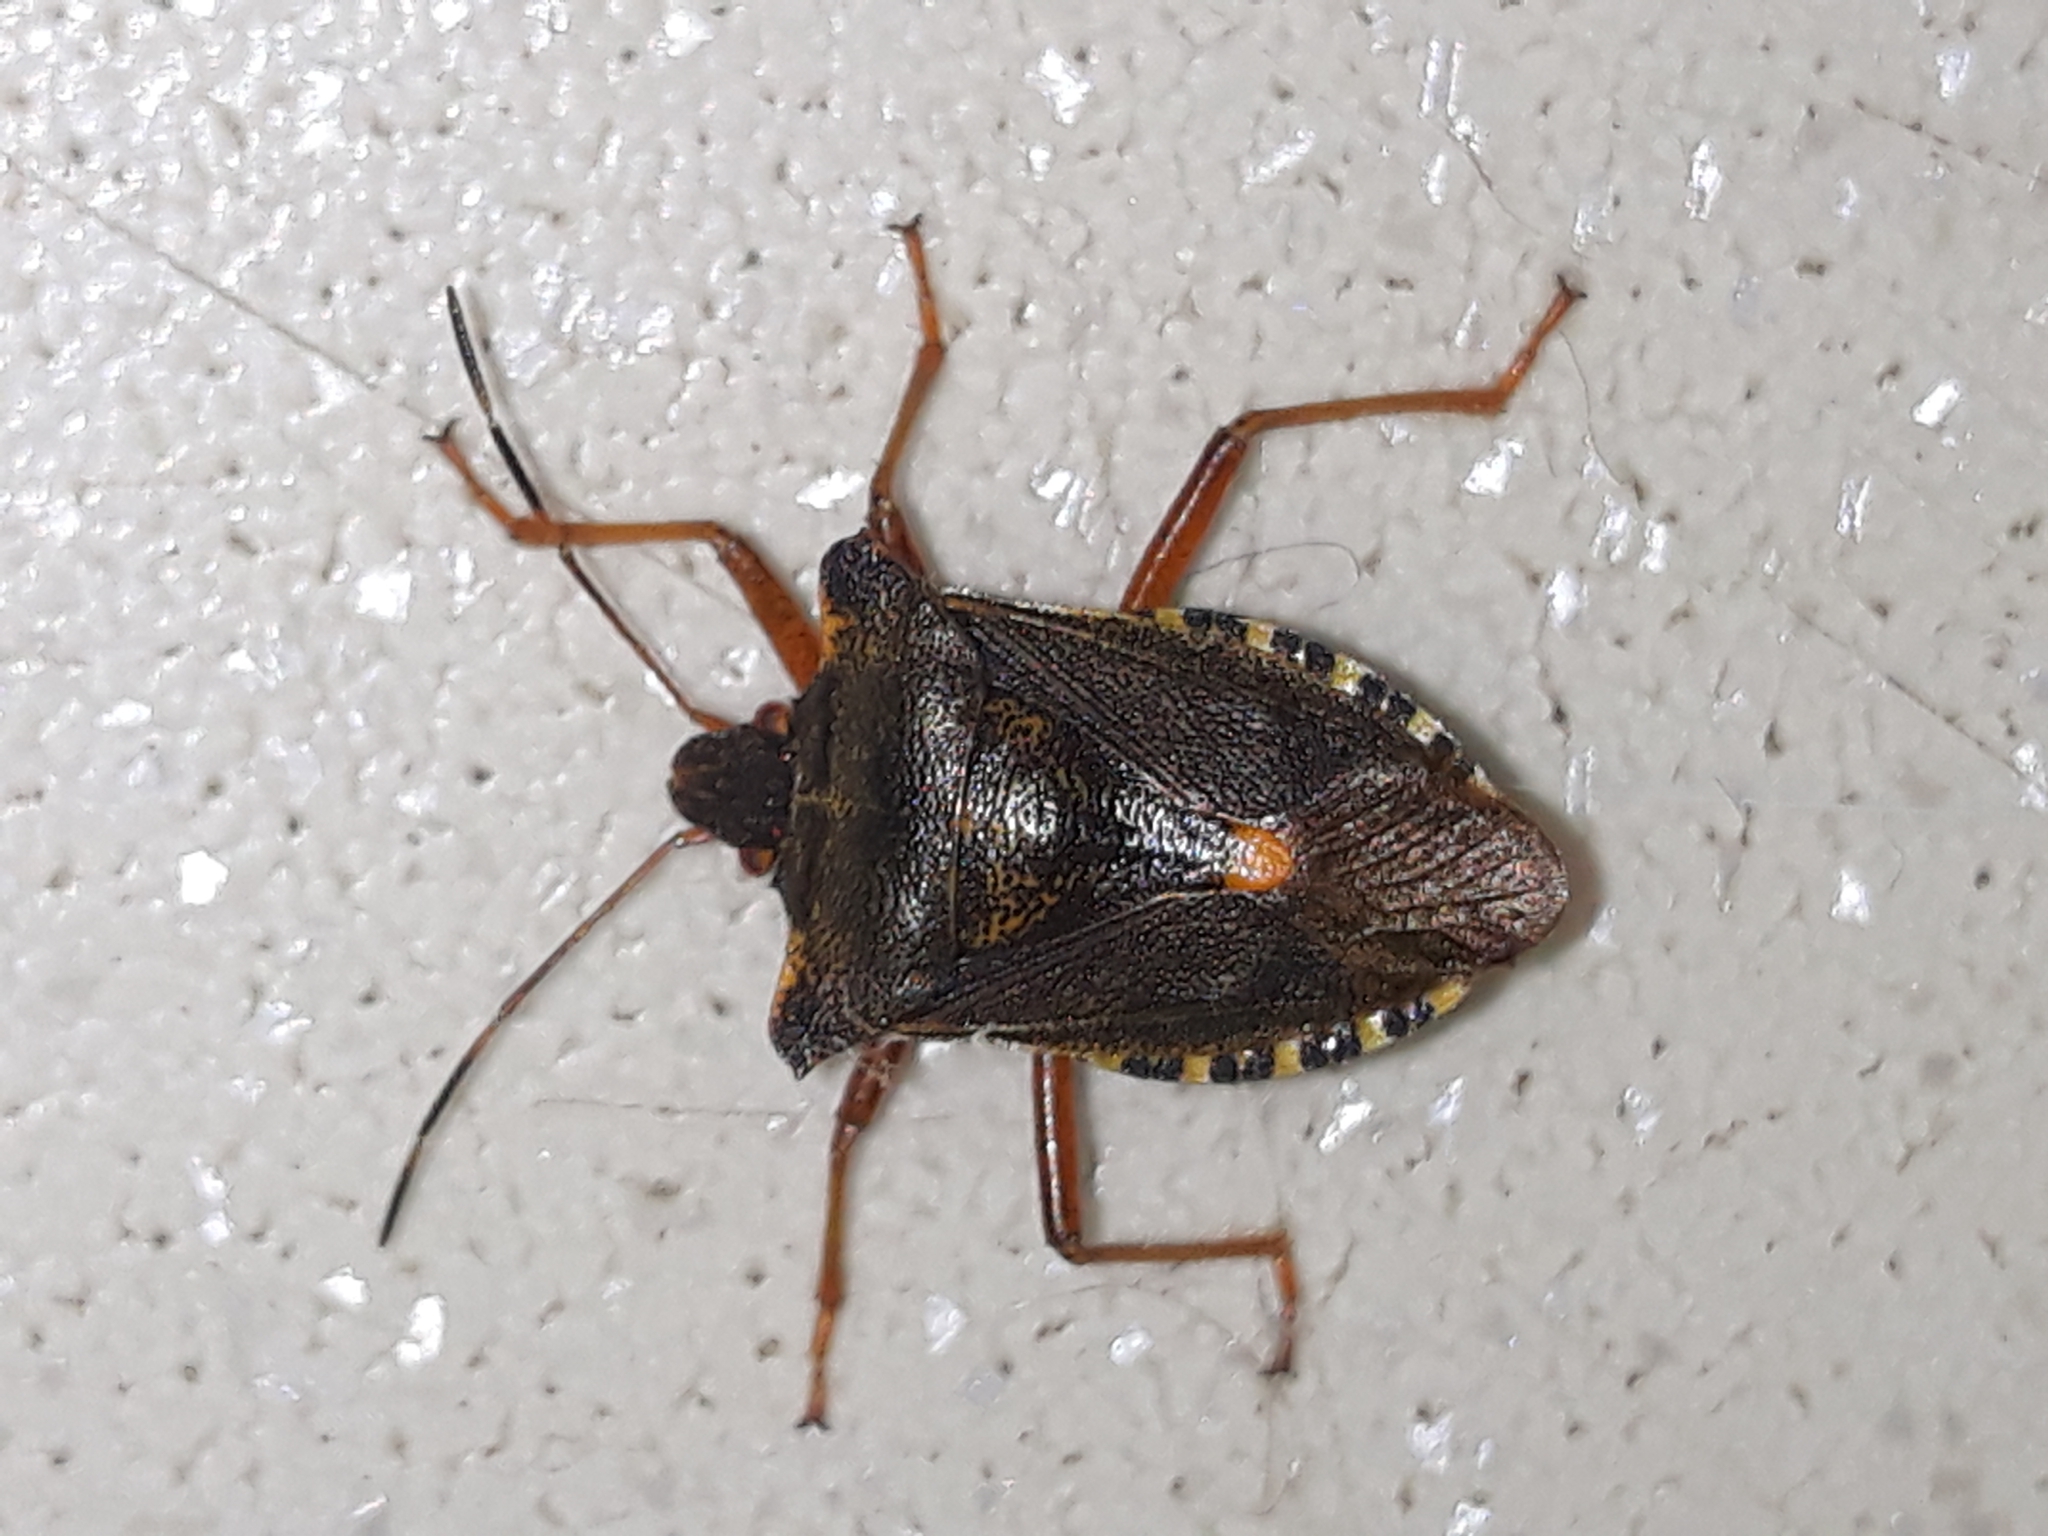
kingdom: Animalia
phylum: Arthropoda
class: Insecta
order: Hemiptera
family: Pentatomidae
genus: Pentatoma
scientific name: Pentatoma rufipes
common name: Forest bug
